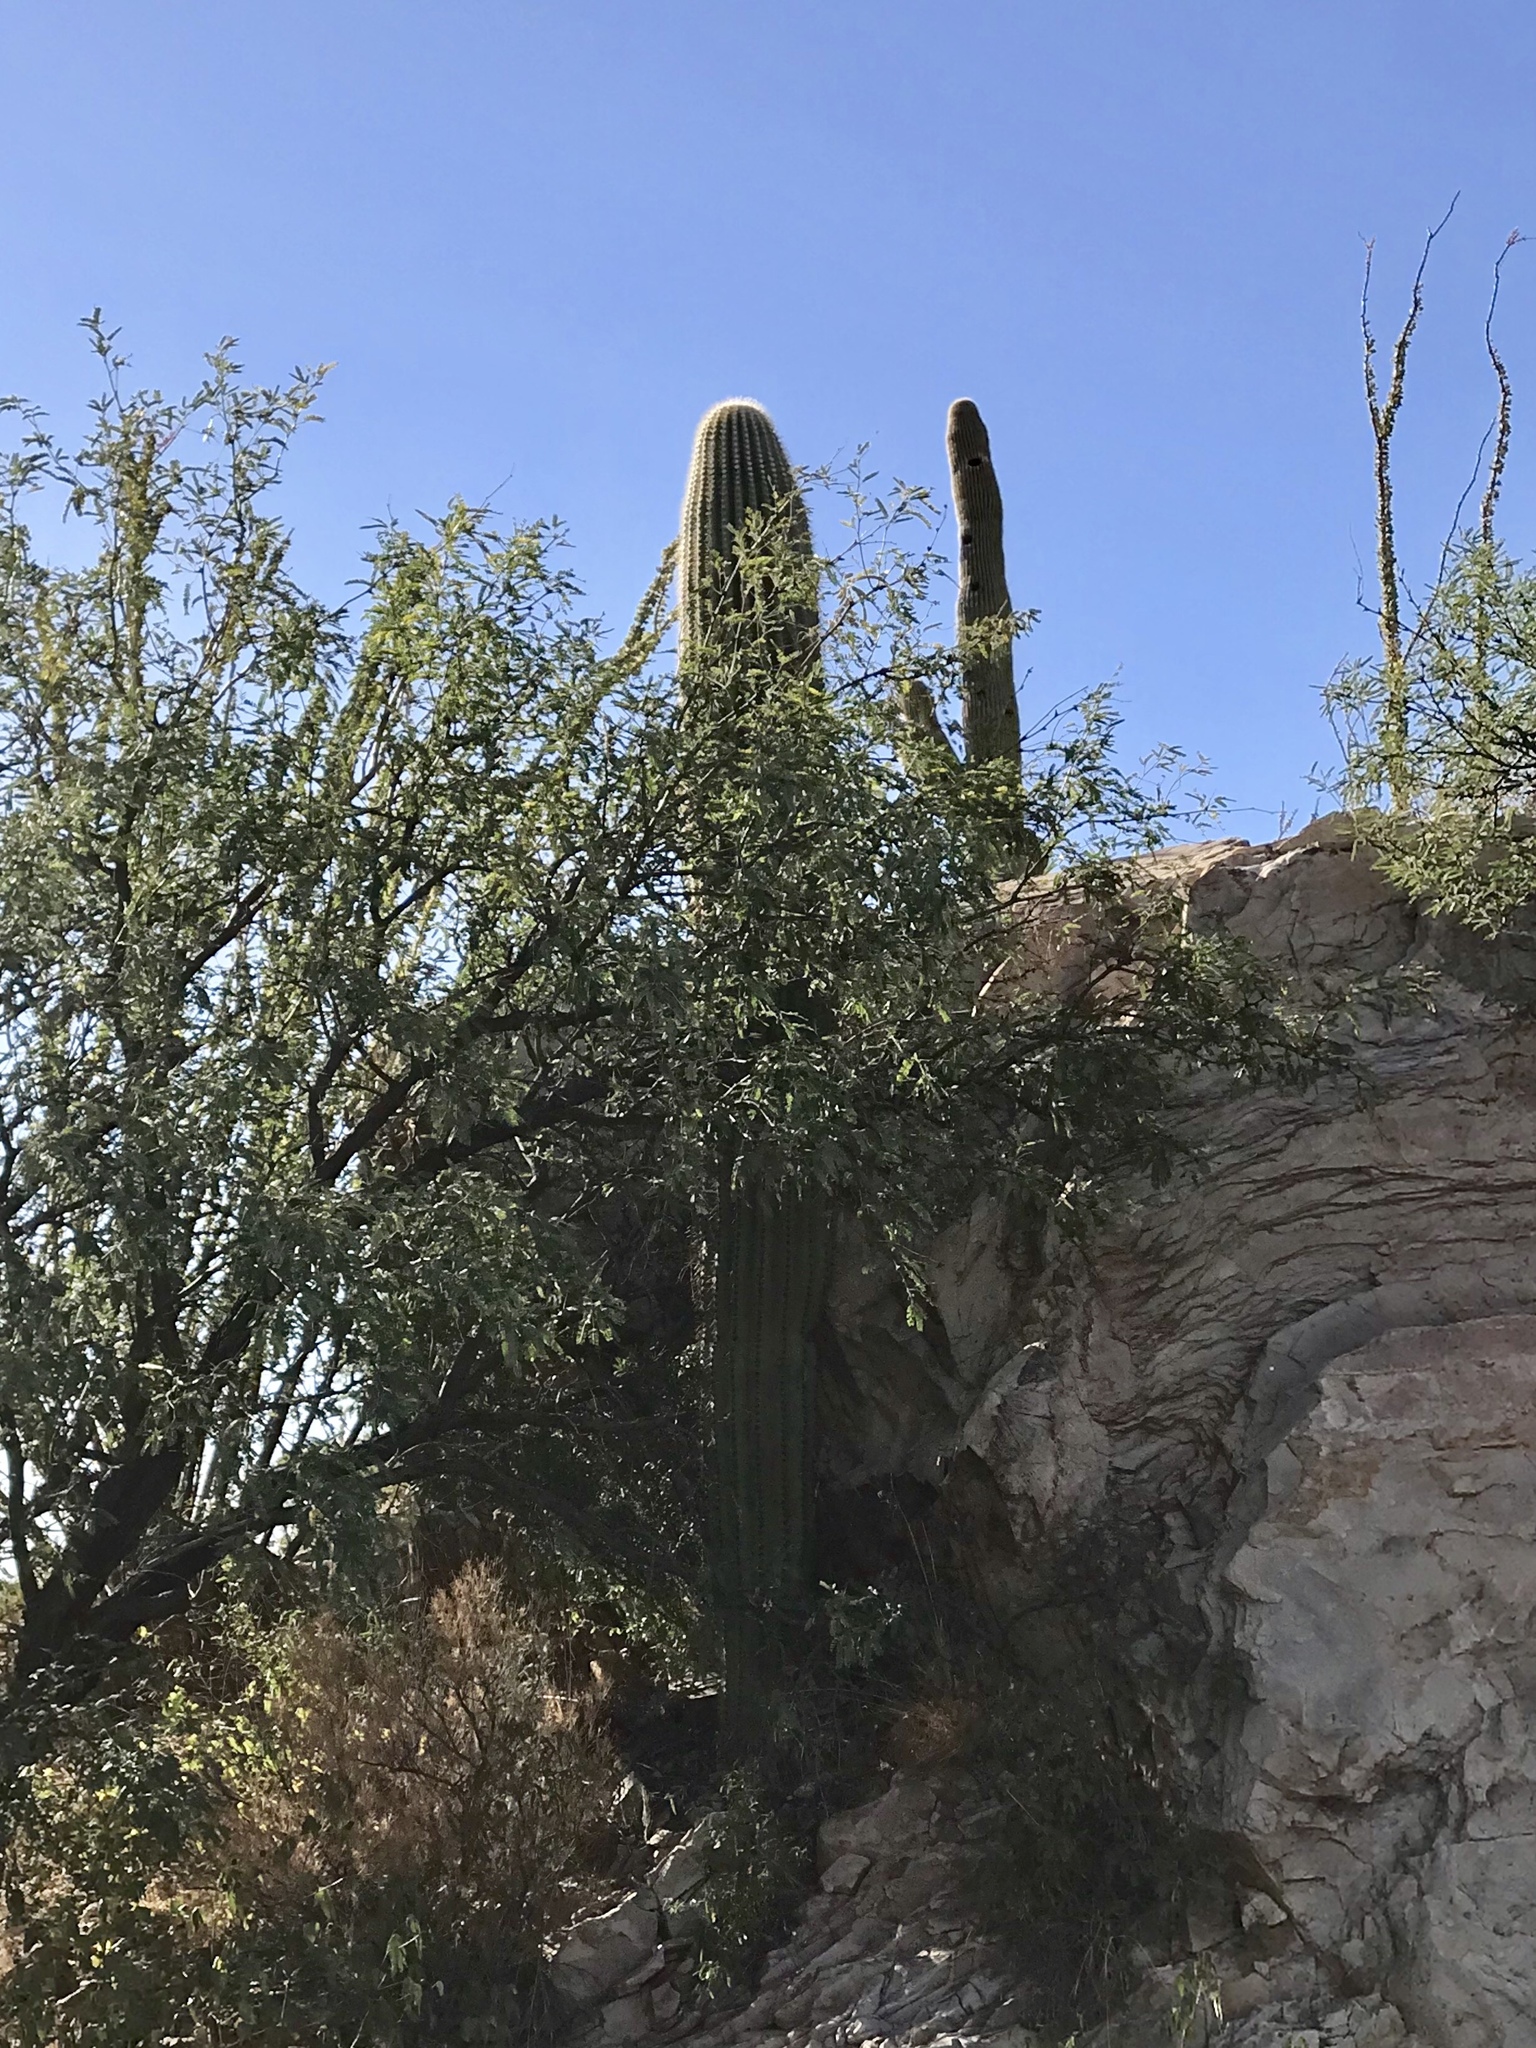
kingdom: Plantae
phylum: Tracheophyta
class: Magnoliopsida
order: Caryophyllales
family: Cactaceae
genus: Carnegiea
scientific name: Carnegiea gigantea
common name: Saguaro
